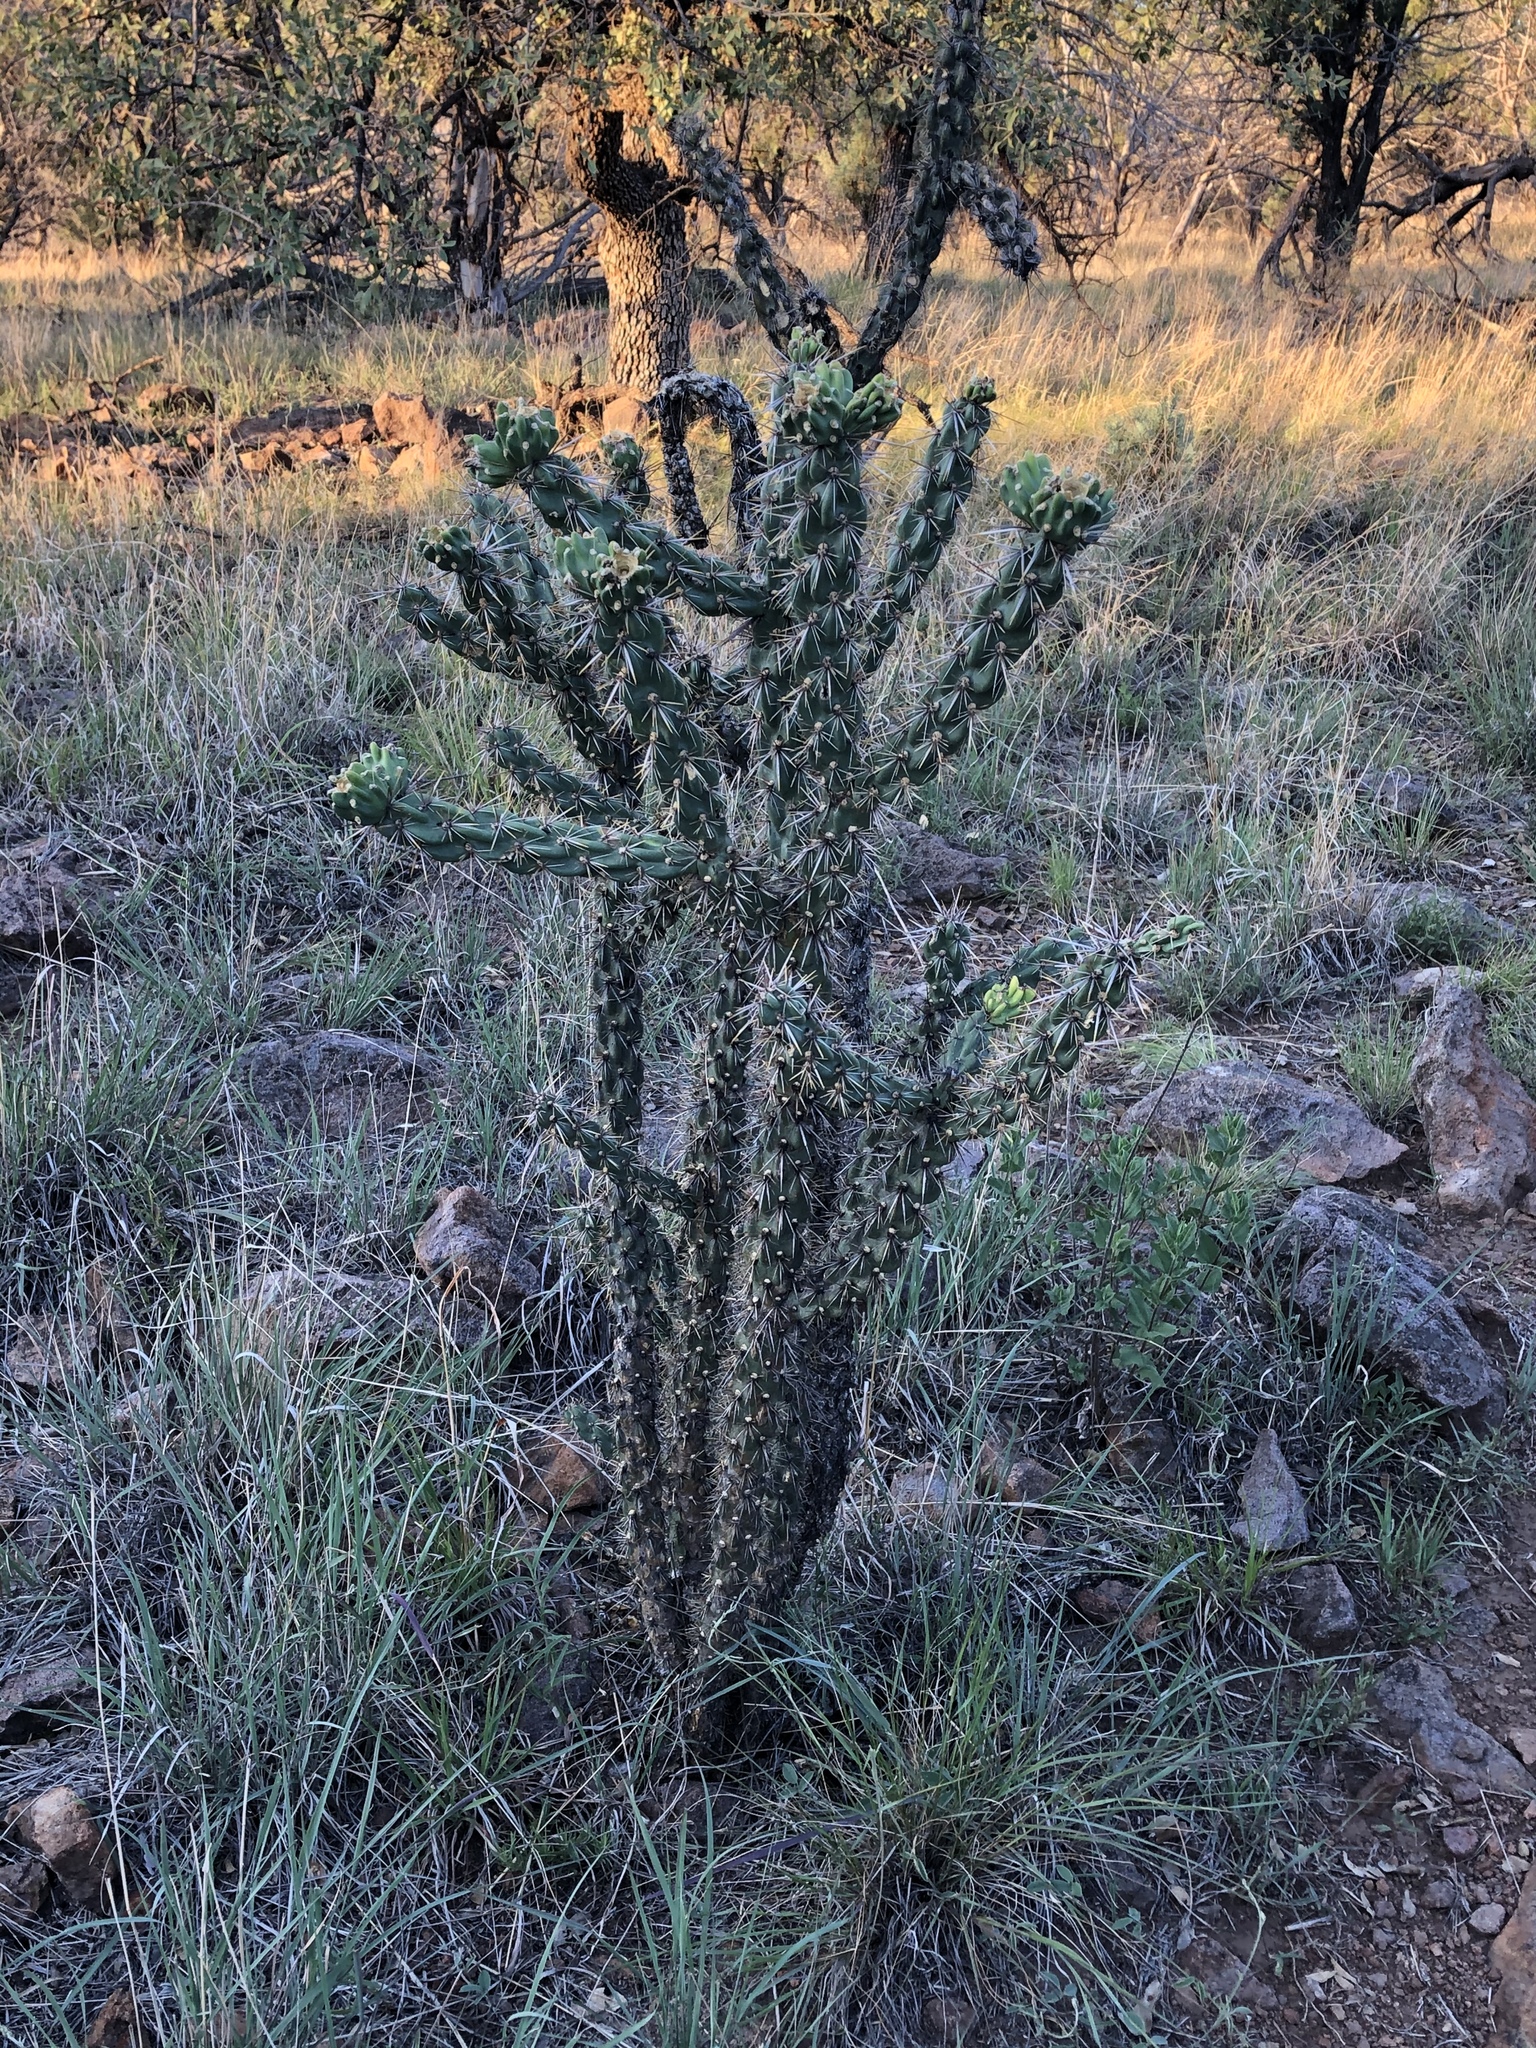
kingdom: Plantae
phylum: Tracheophyta
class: Magnoliopsida
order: Caryophyllales
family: Cactaceae
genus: Cylindropuntia
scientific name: Cylindropuntia imbricata
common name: Candelabrum cactus
